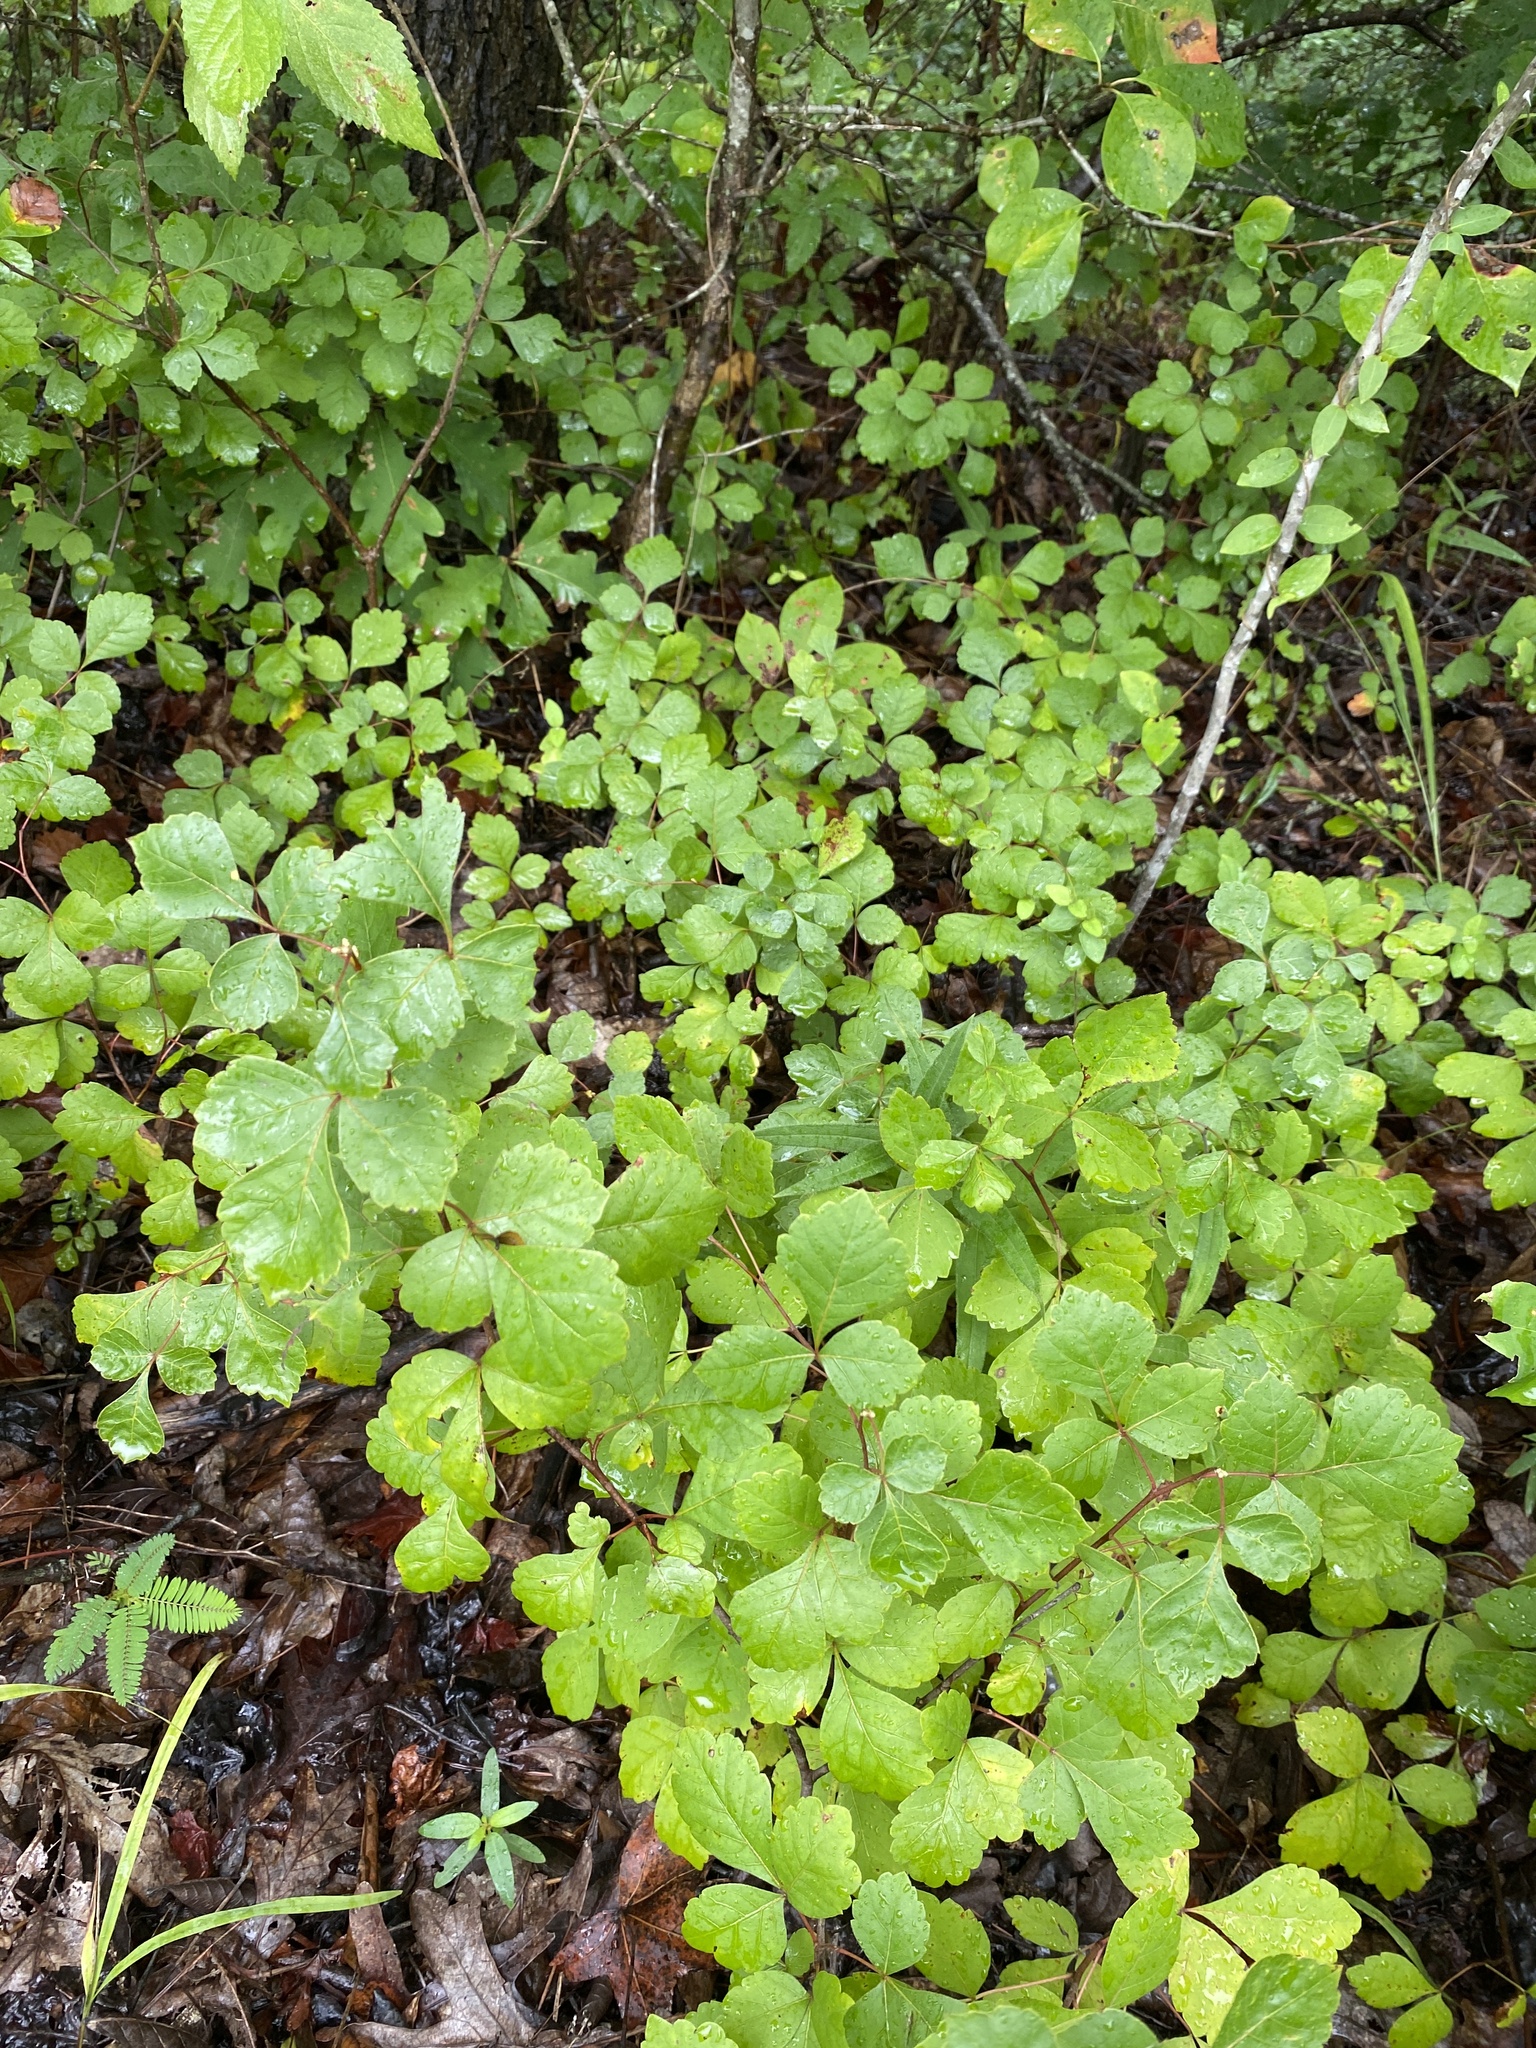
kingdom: Plantae
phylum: Tracheophyta
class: Magnoliopsida
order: Sapindales
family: Anacardiaceae
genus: Rhus
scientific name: Rhus aromatica
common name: Aromatic sumac
